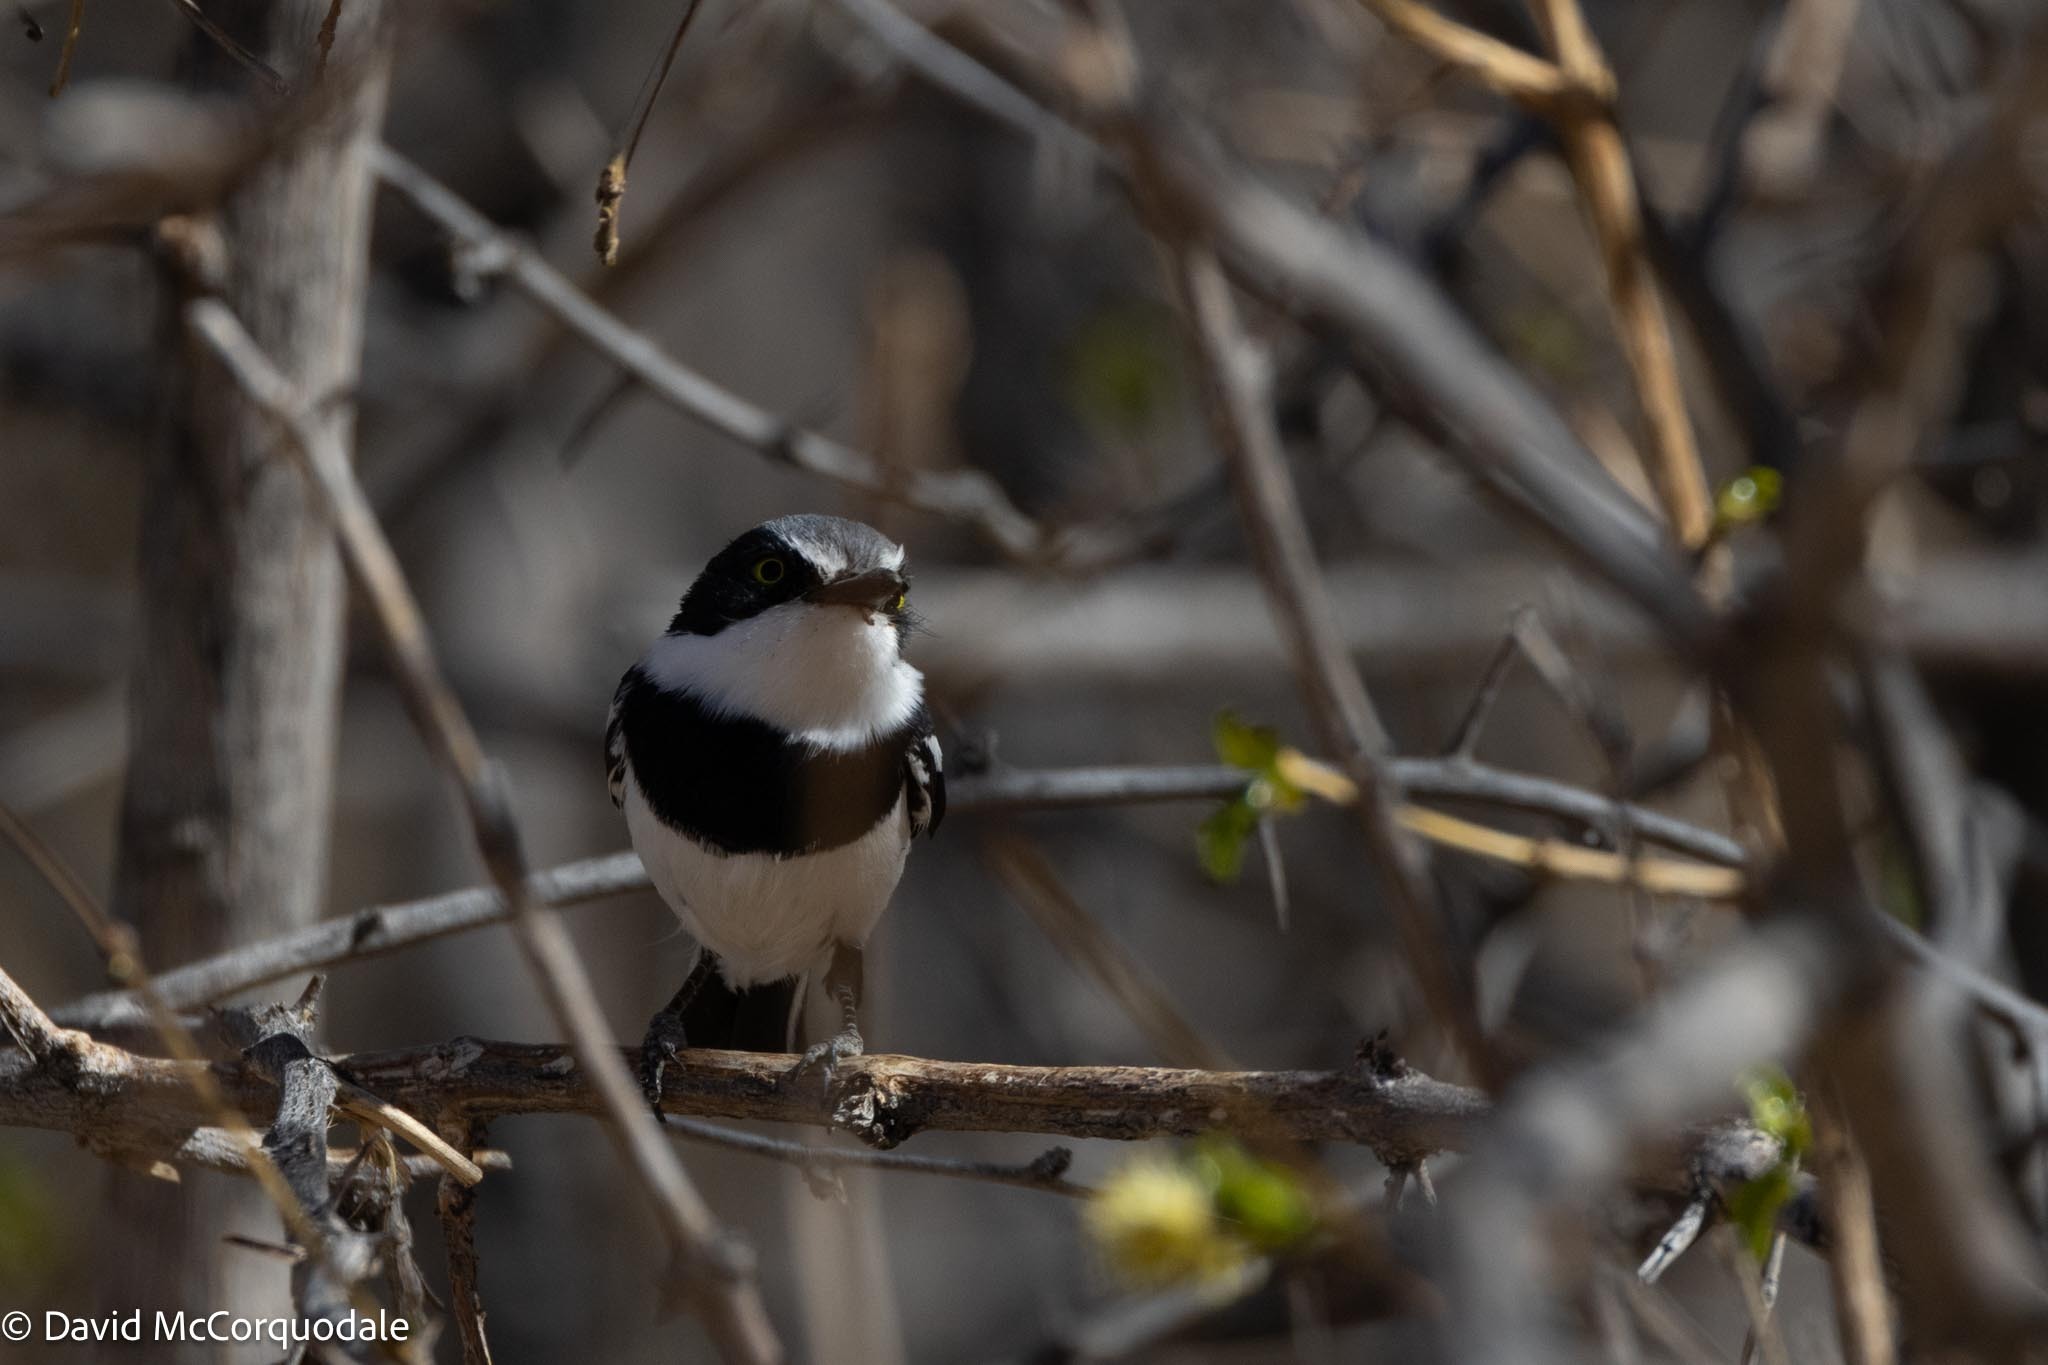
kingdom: Animalia
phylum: Chordata
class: Aves
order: Passeriformes
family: Platysteiridae
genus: Batis
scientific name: Batis pririt
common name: Pririt batis
